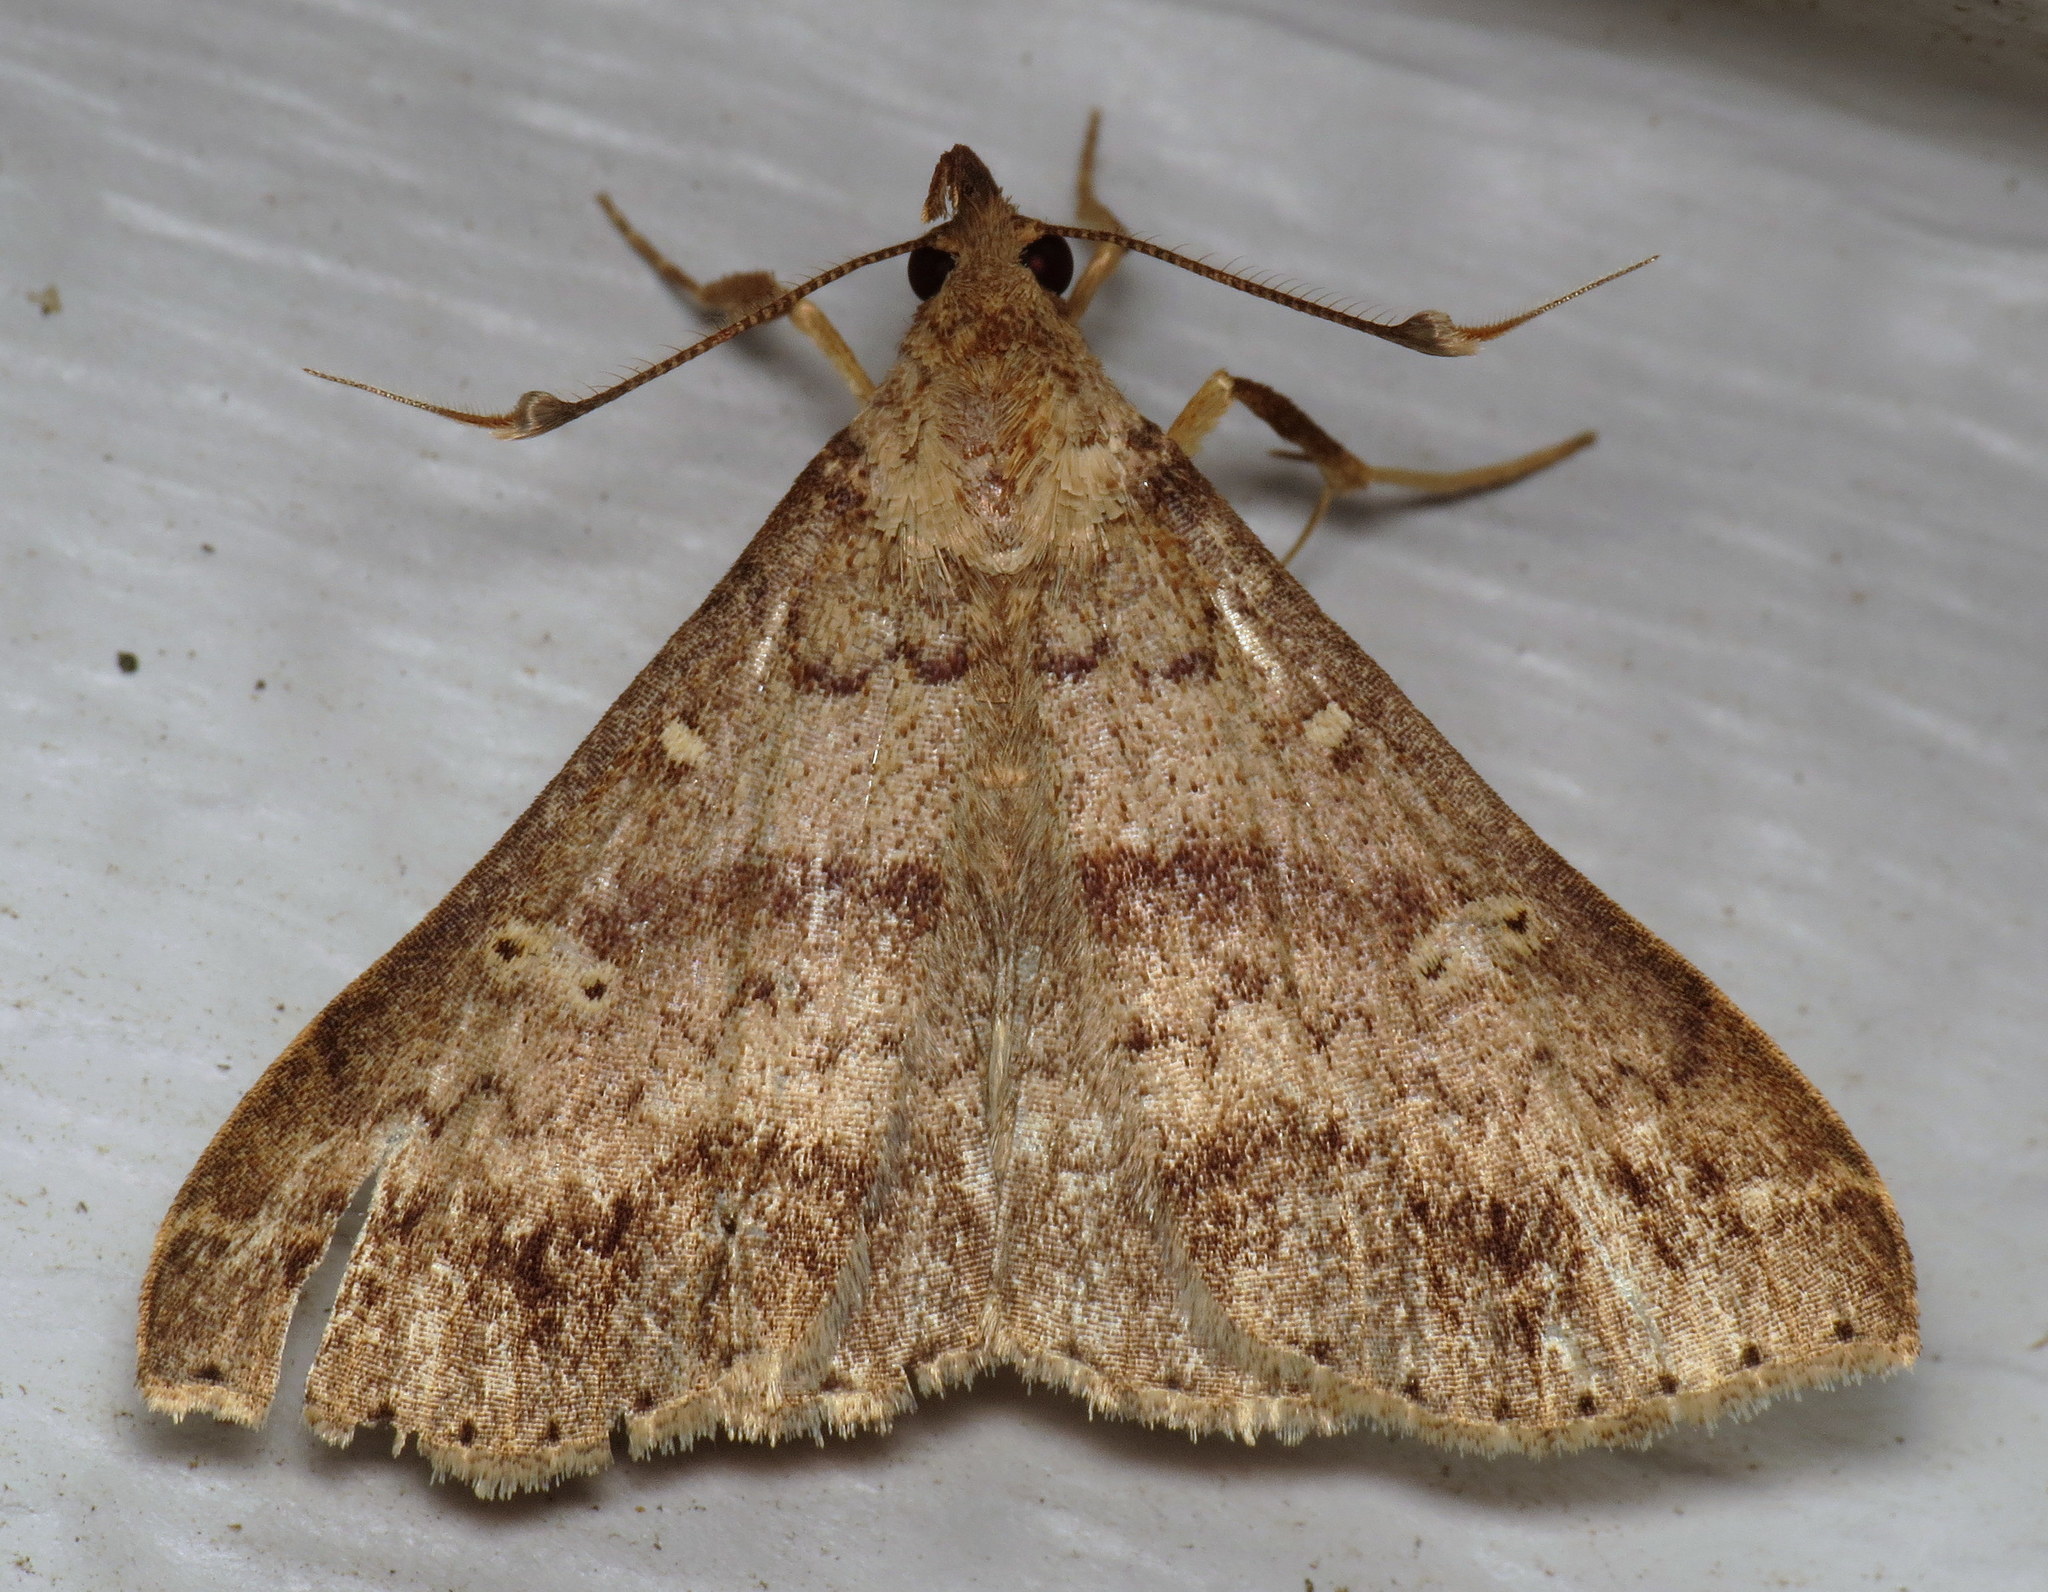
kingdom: Animalia
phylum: Arthropoda
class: Insecta
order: Lepidoptera
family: Erebidae
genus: Renia
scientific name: Renia discoloralis
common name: Discolored renia moth
